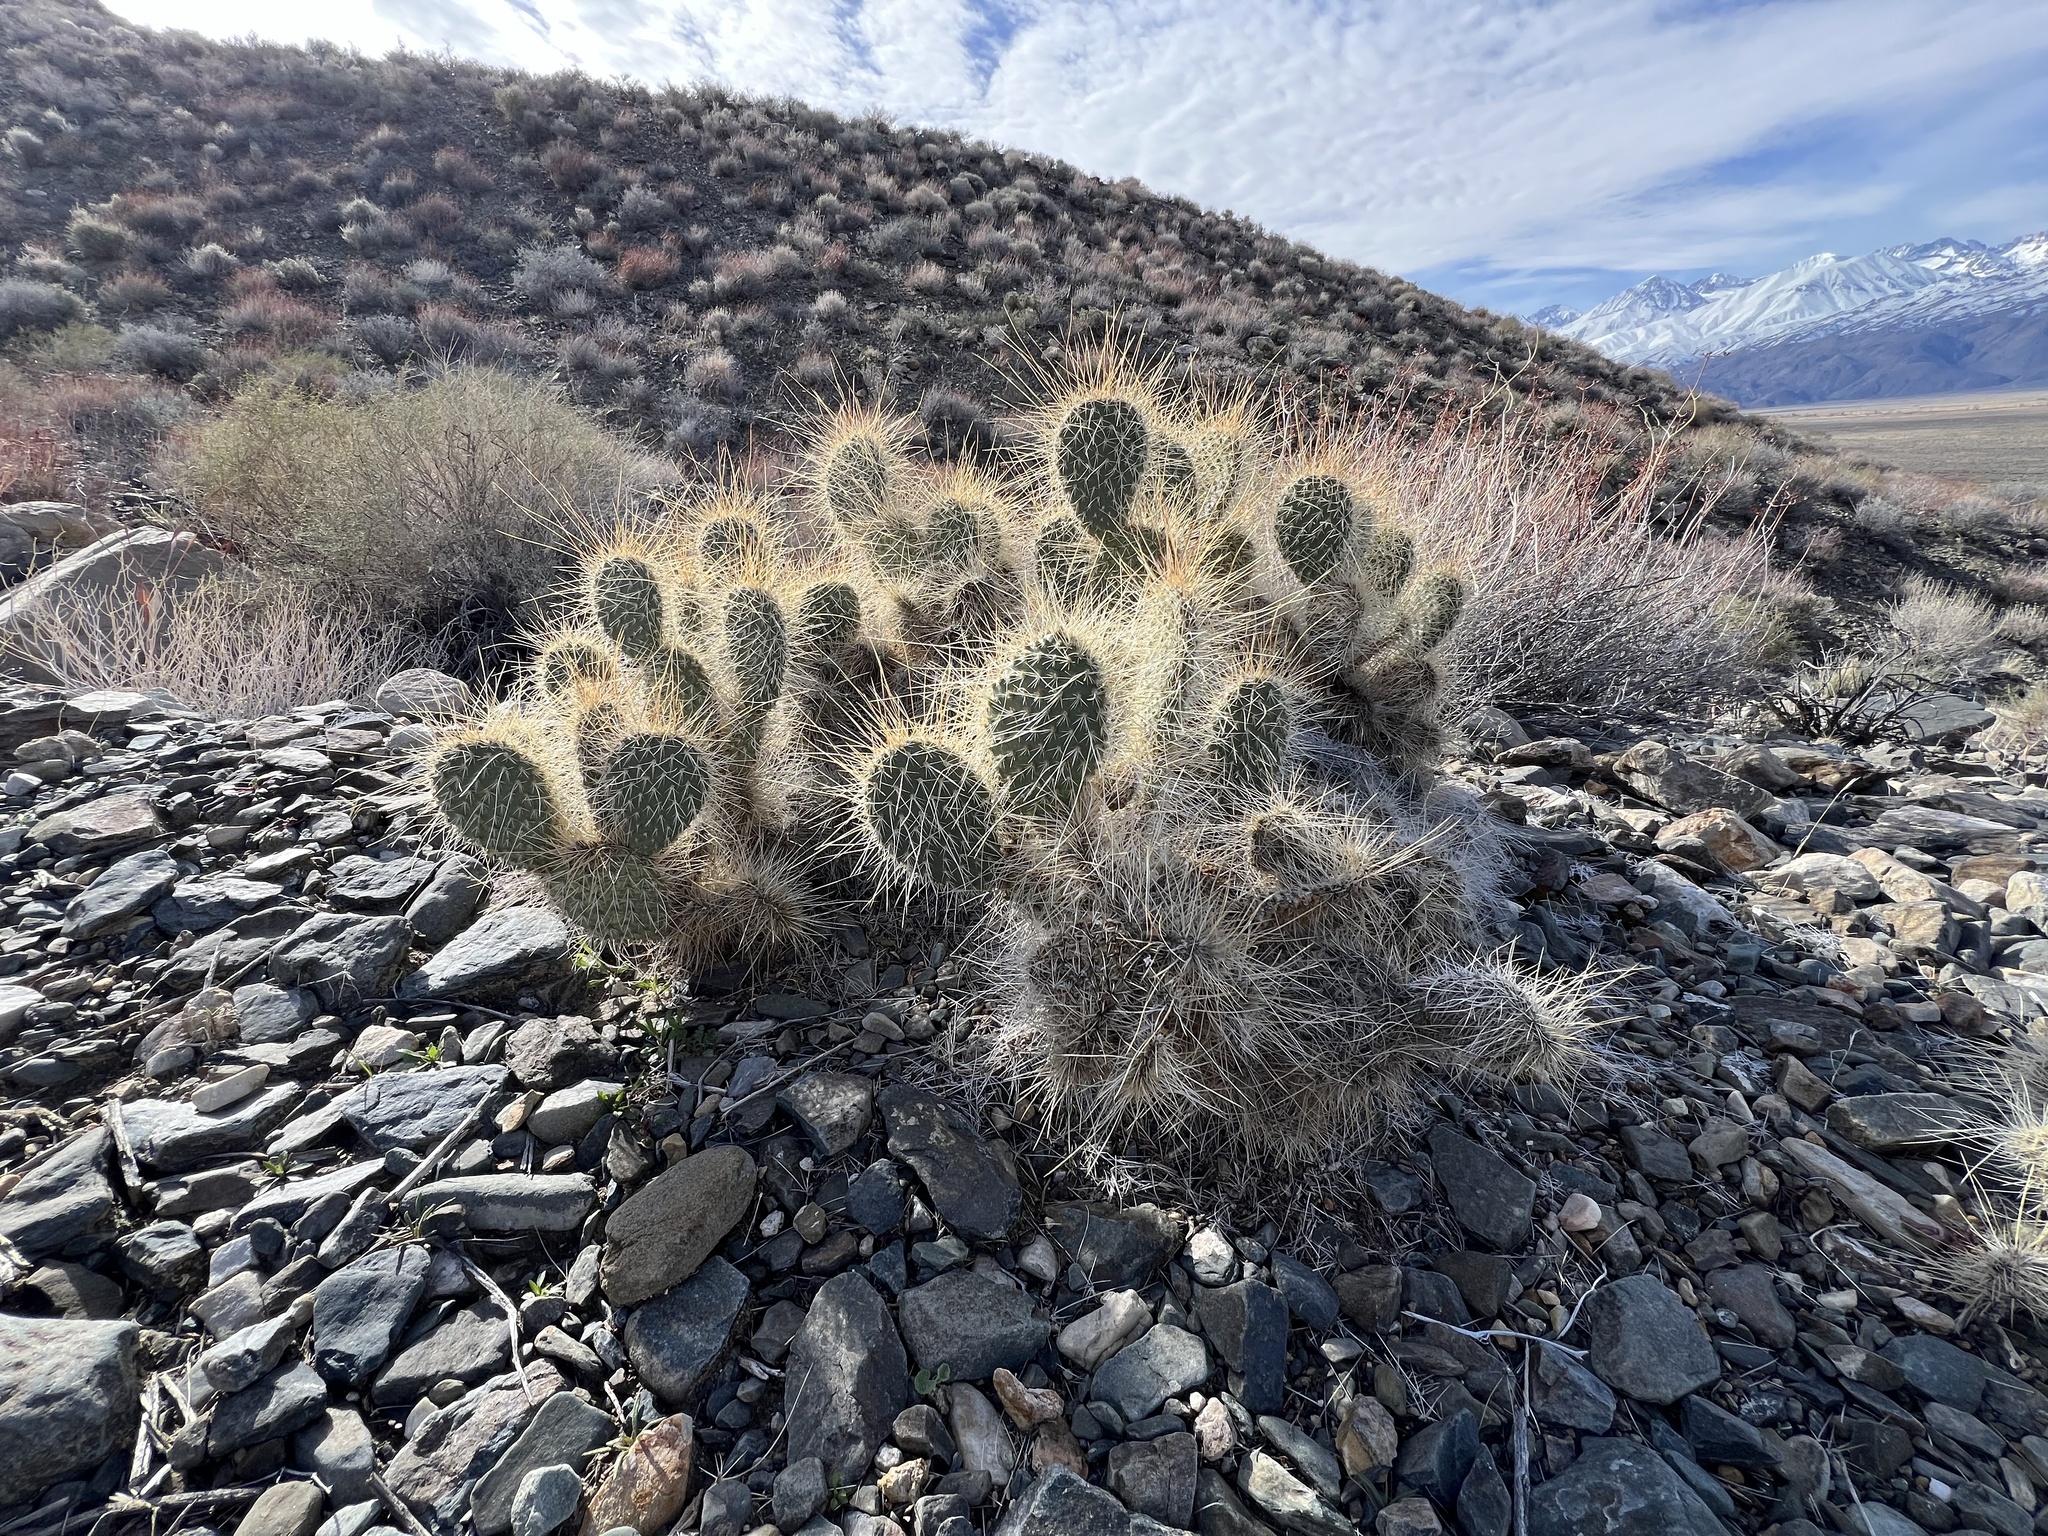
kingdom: Plantae
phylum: Tracheophyta
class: Magnoliopsida
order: Caryophyllales
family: Cactaceae
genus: Opuntia
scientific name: Opuntia polyacantha
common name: Plains prickly-pear
